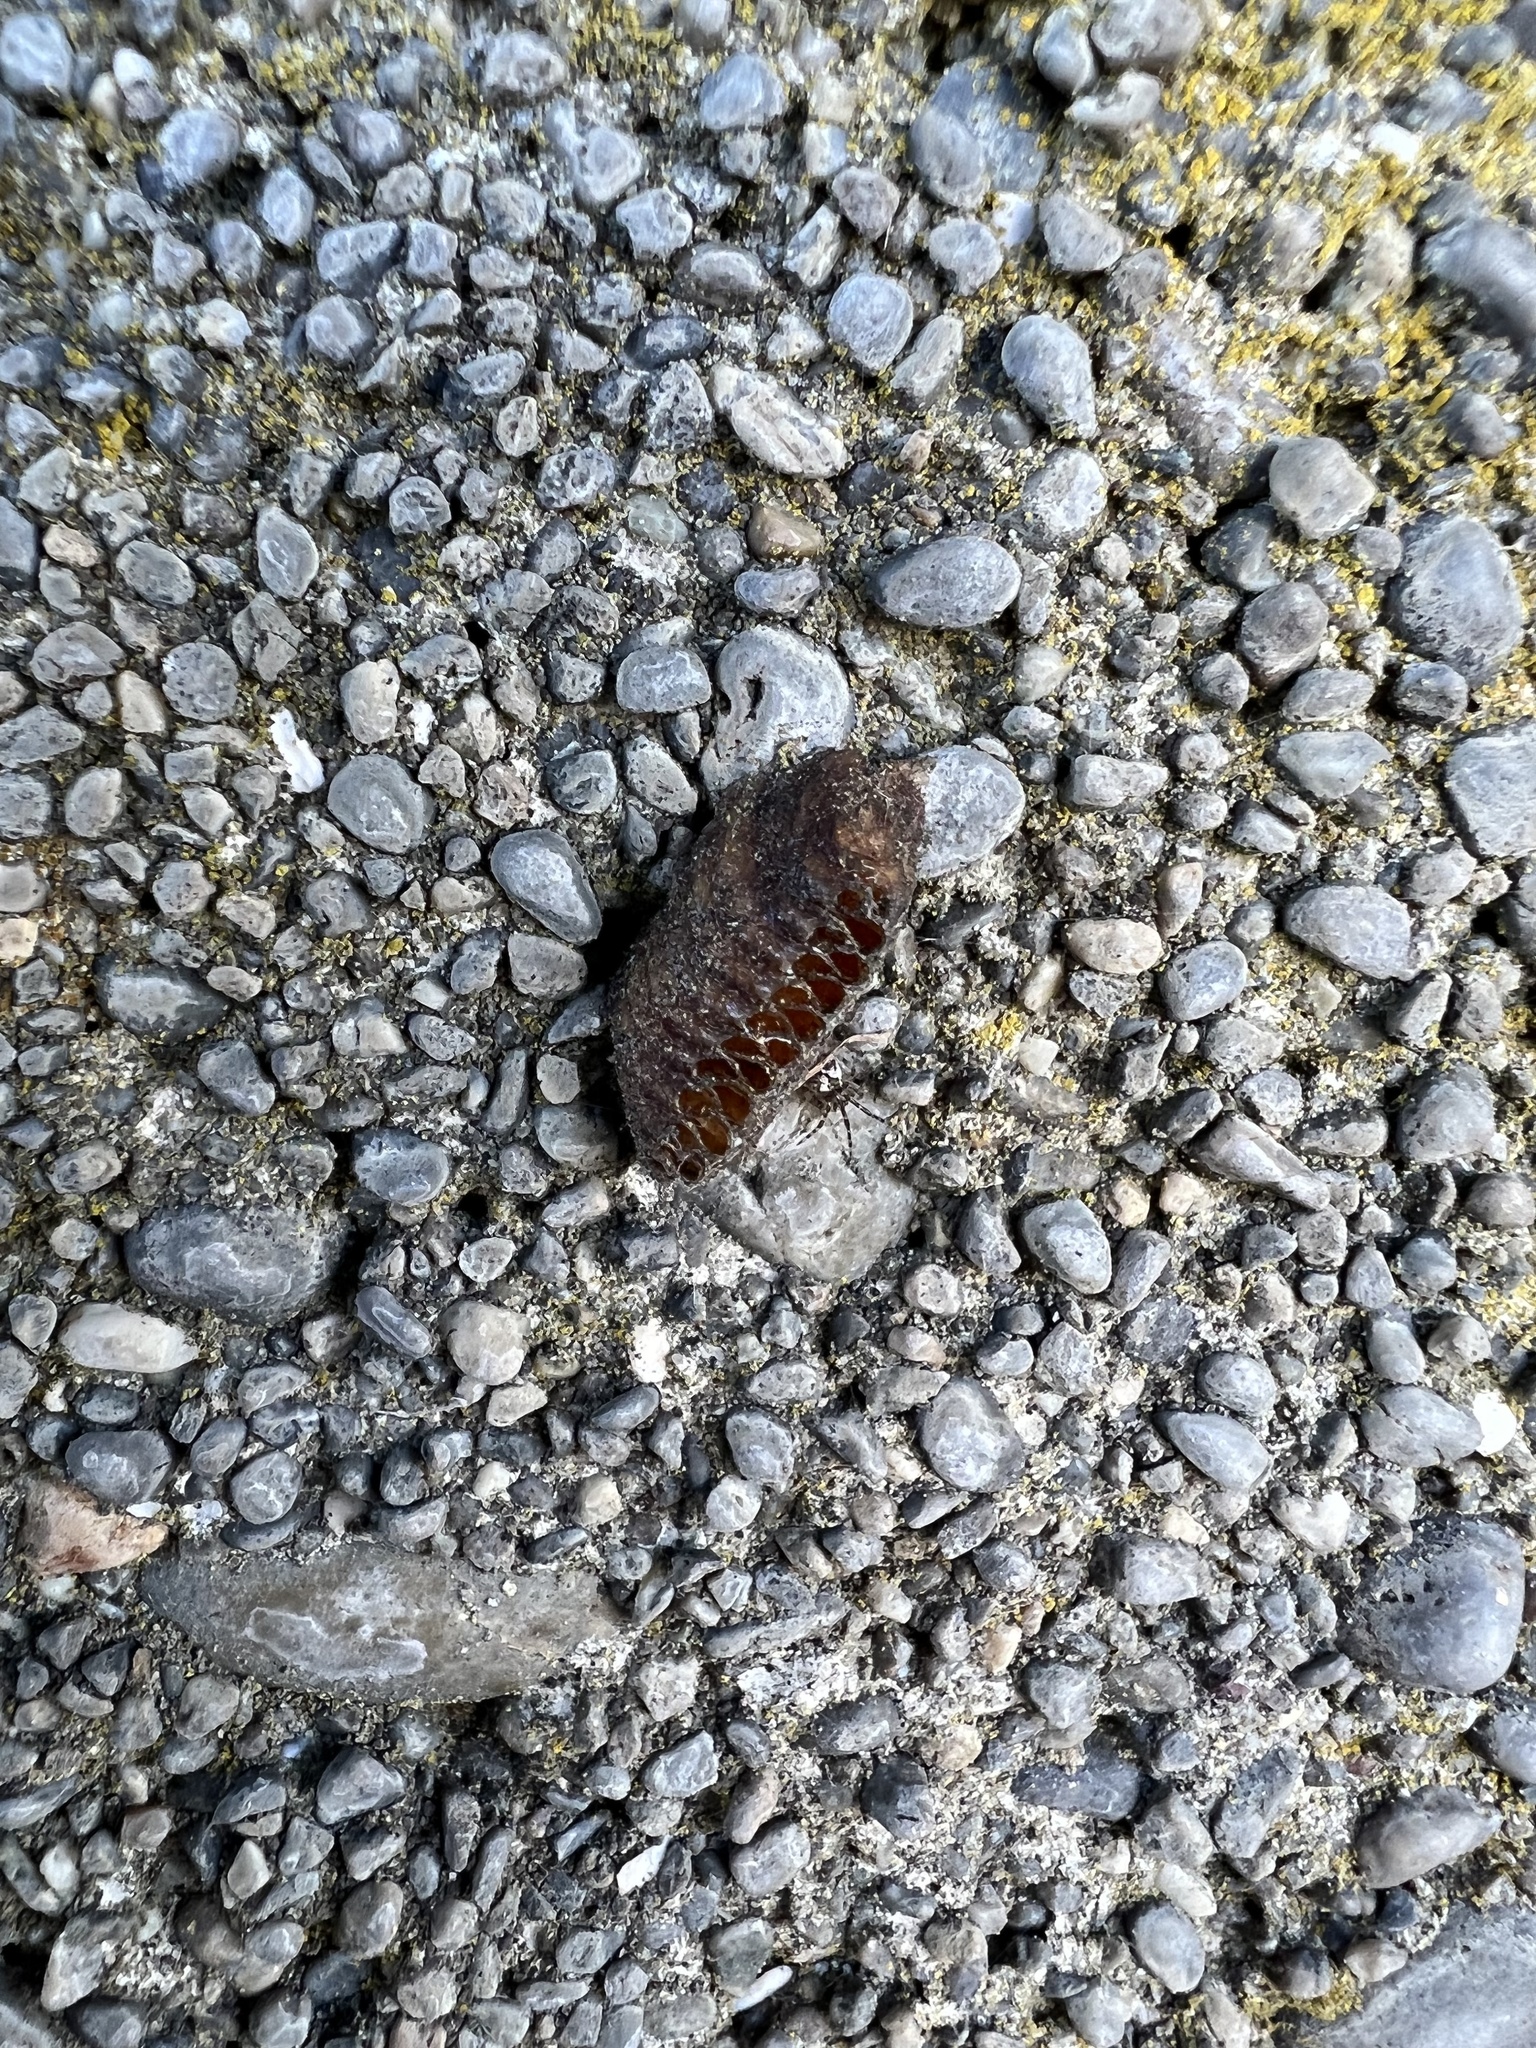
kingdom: Animalia
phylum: Arthropoda
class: Insecta
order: Mantodea
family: Mantidae
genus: Orthodera
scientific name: Orthodera novaezealandiae
